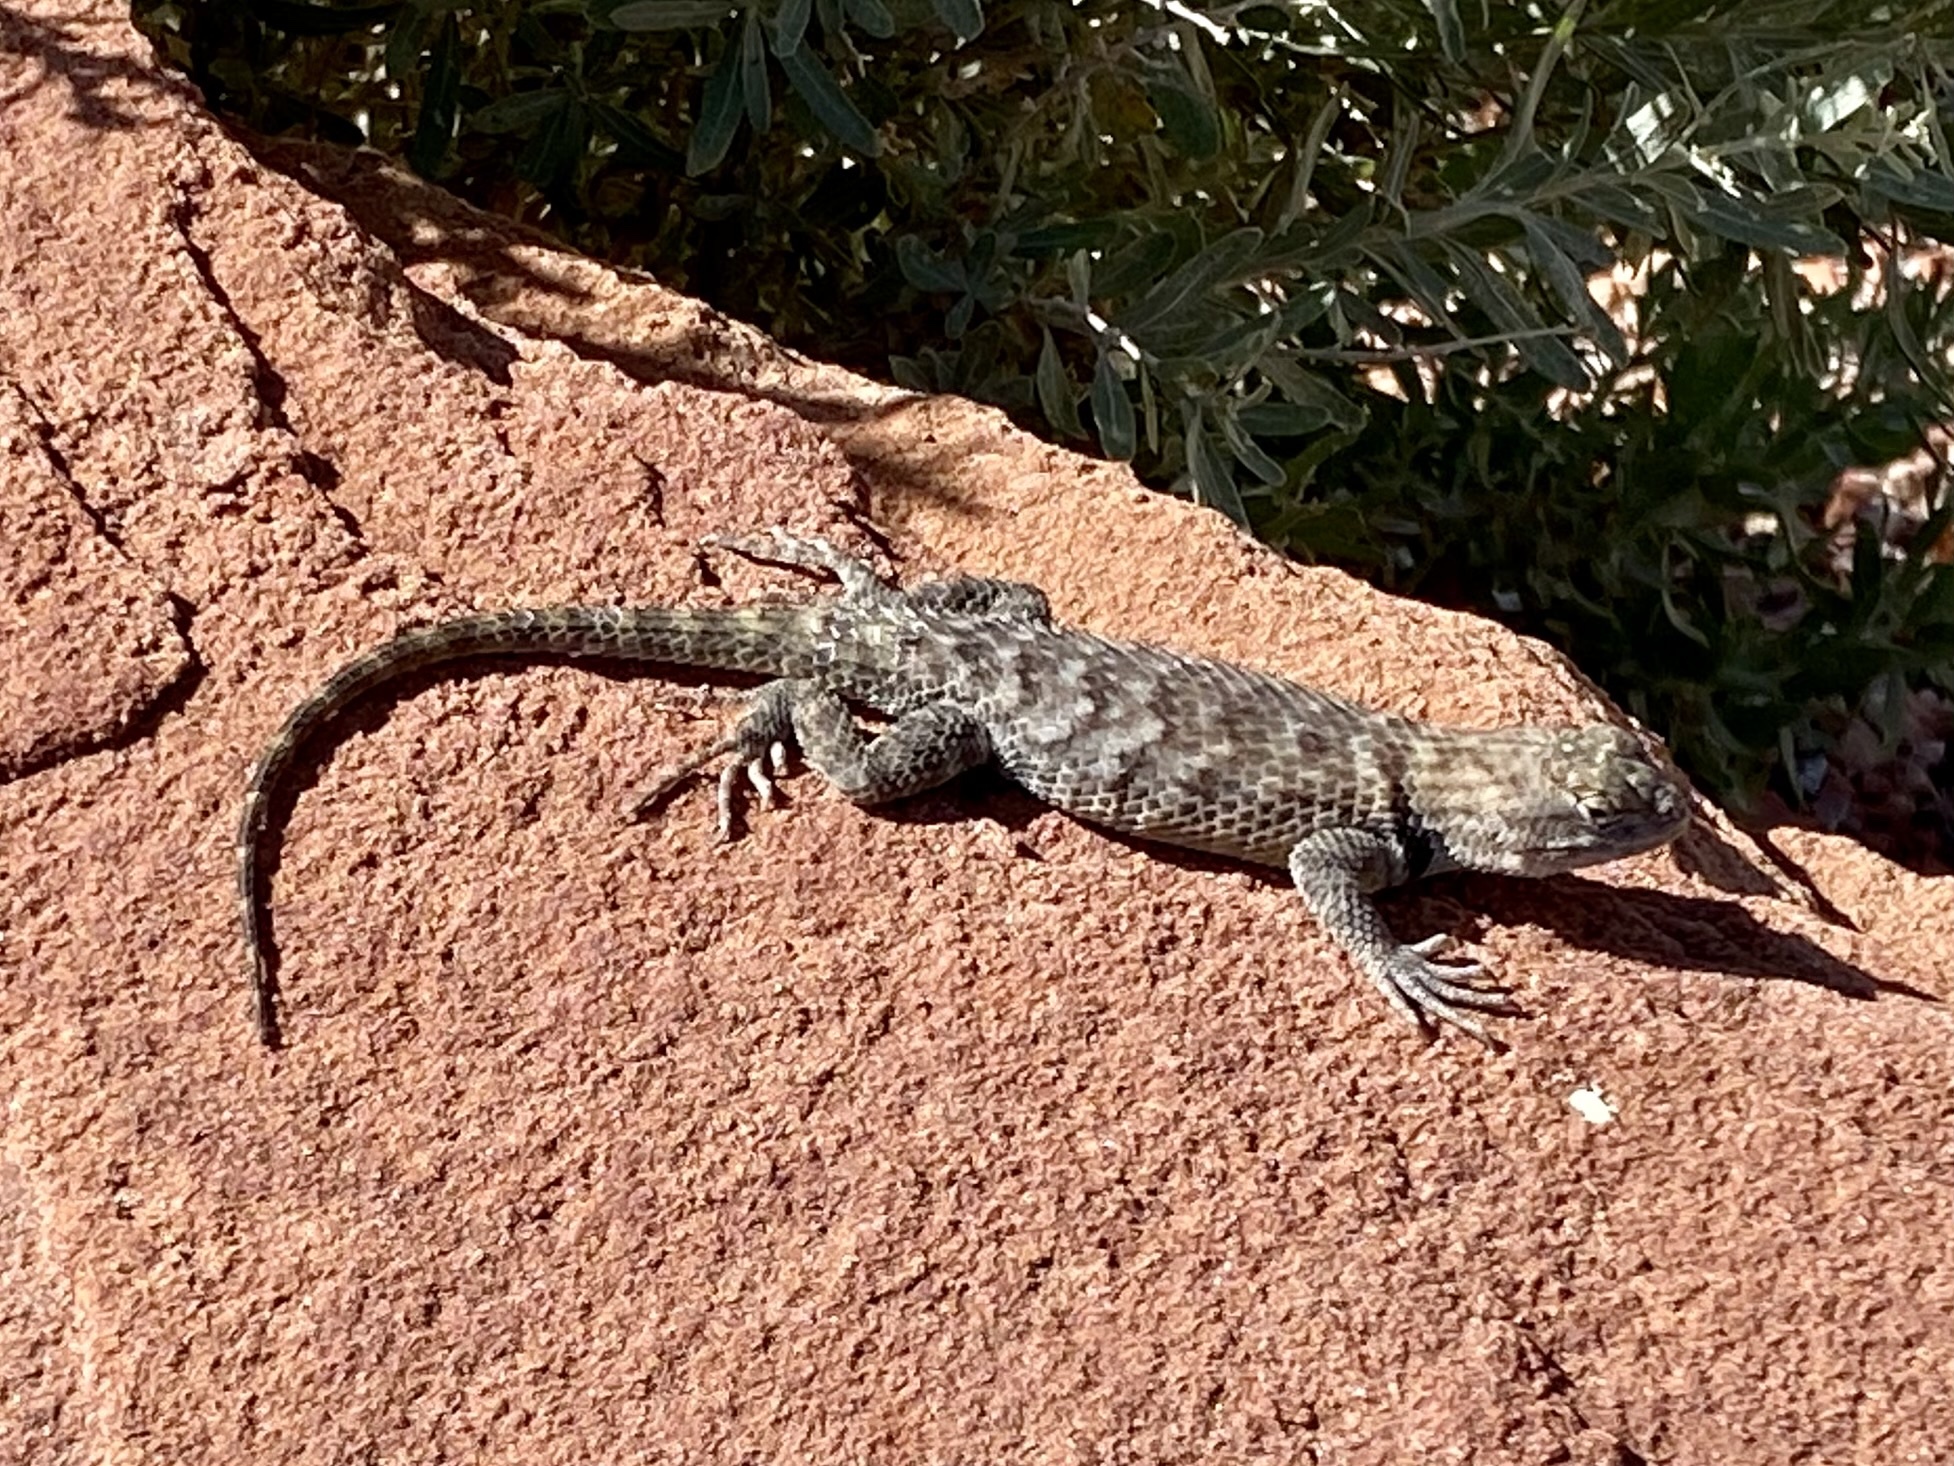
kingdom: Animalia
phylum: Chordata
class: Squamata
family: Phrynosomatidae
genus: Sceloporus
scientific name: Sceloporus magister
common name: Desert spiny lizard
